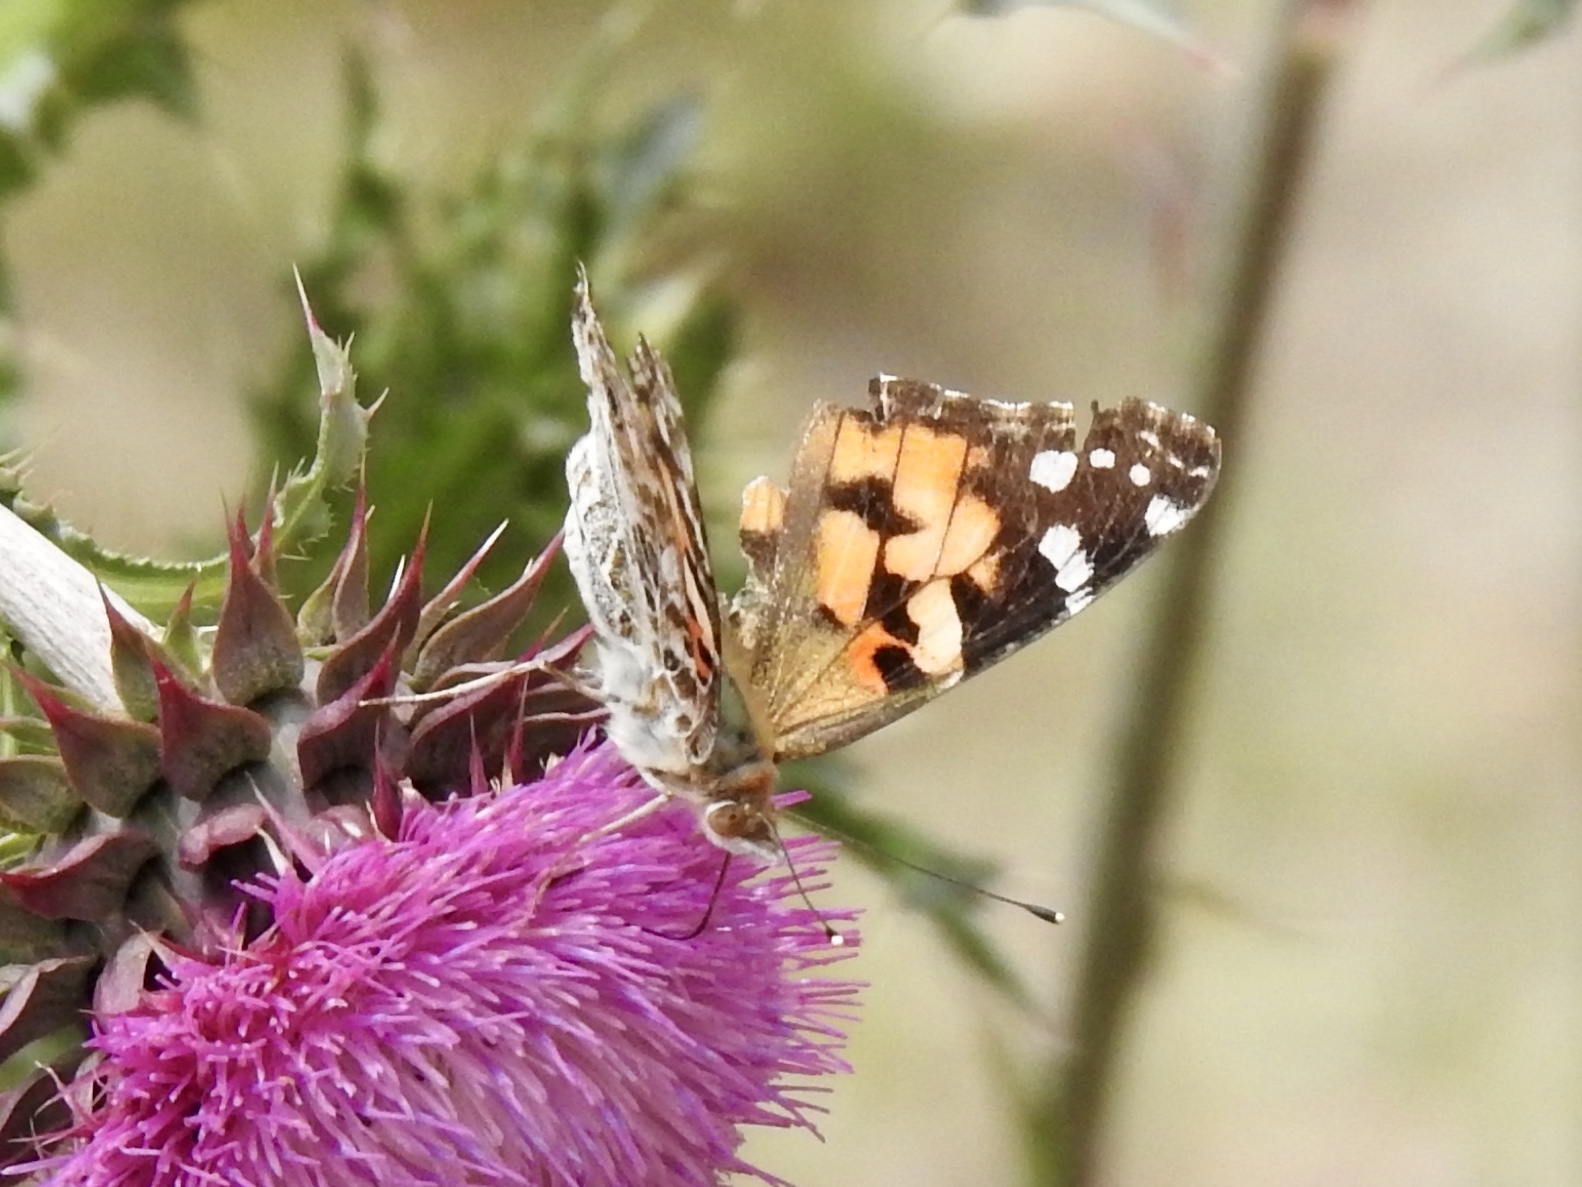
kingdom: Animalia
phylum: Arthropoda
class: Insecta
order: Lepidoptera
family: Nymphalidae
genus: Vanessa
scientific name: Vanessa cardui
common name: Painted lady
